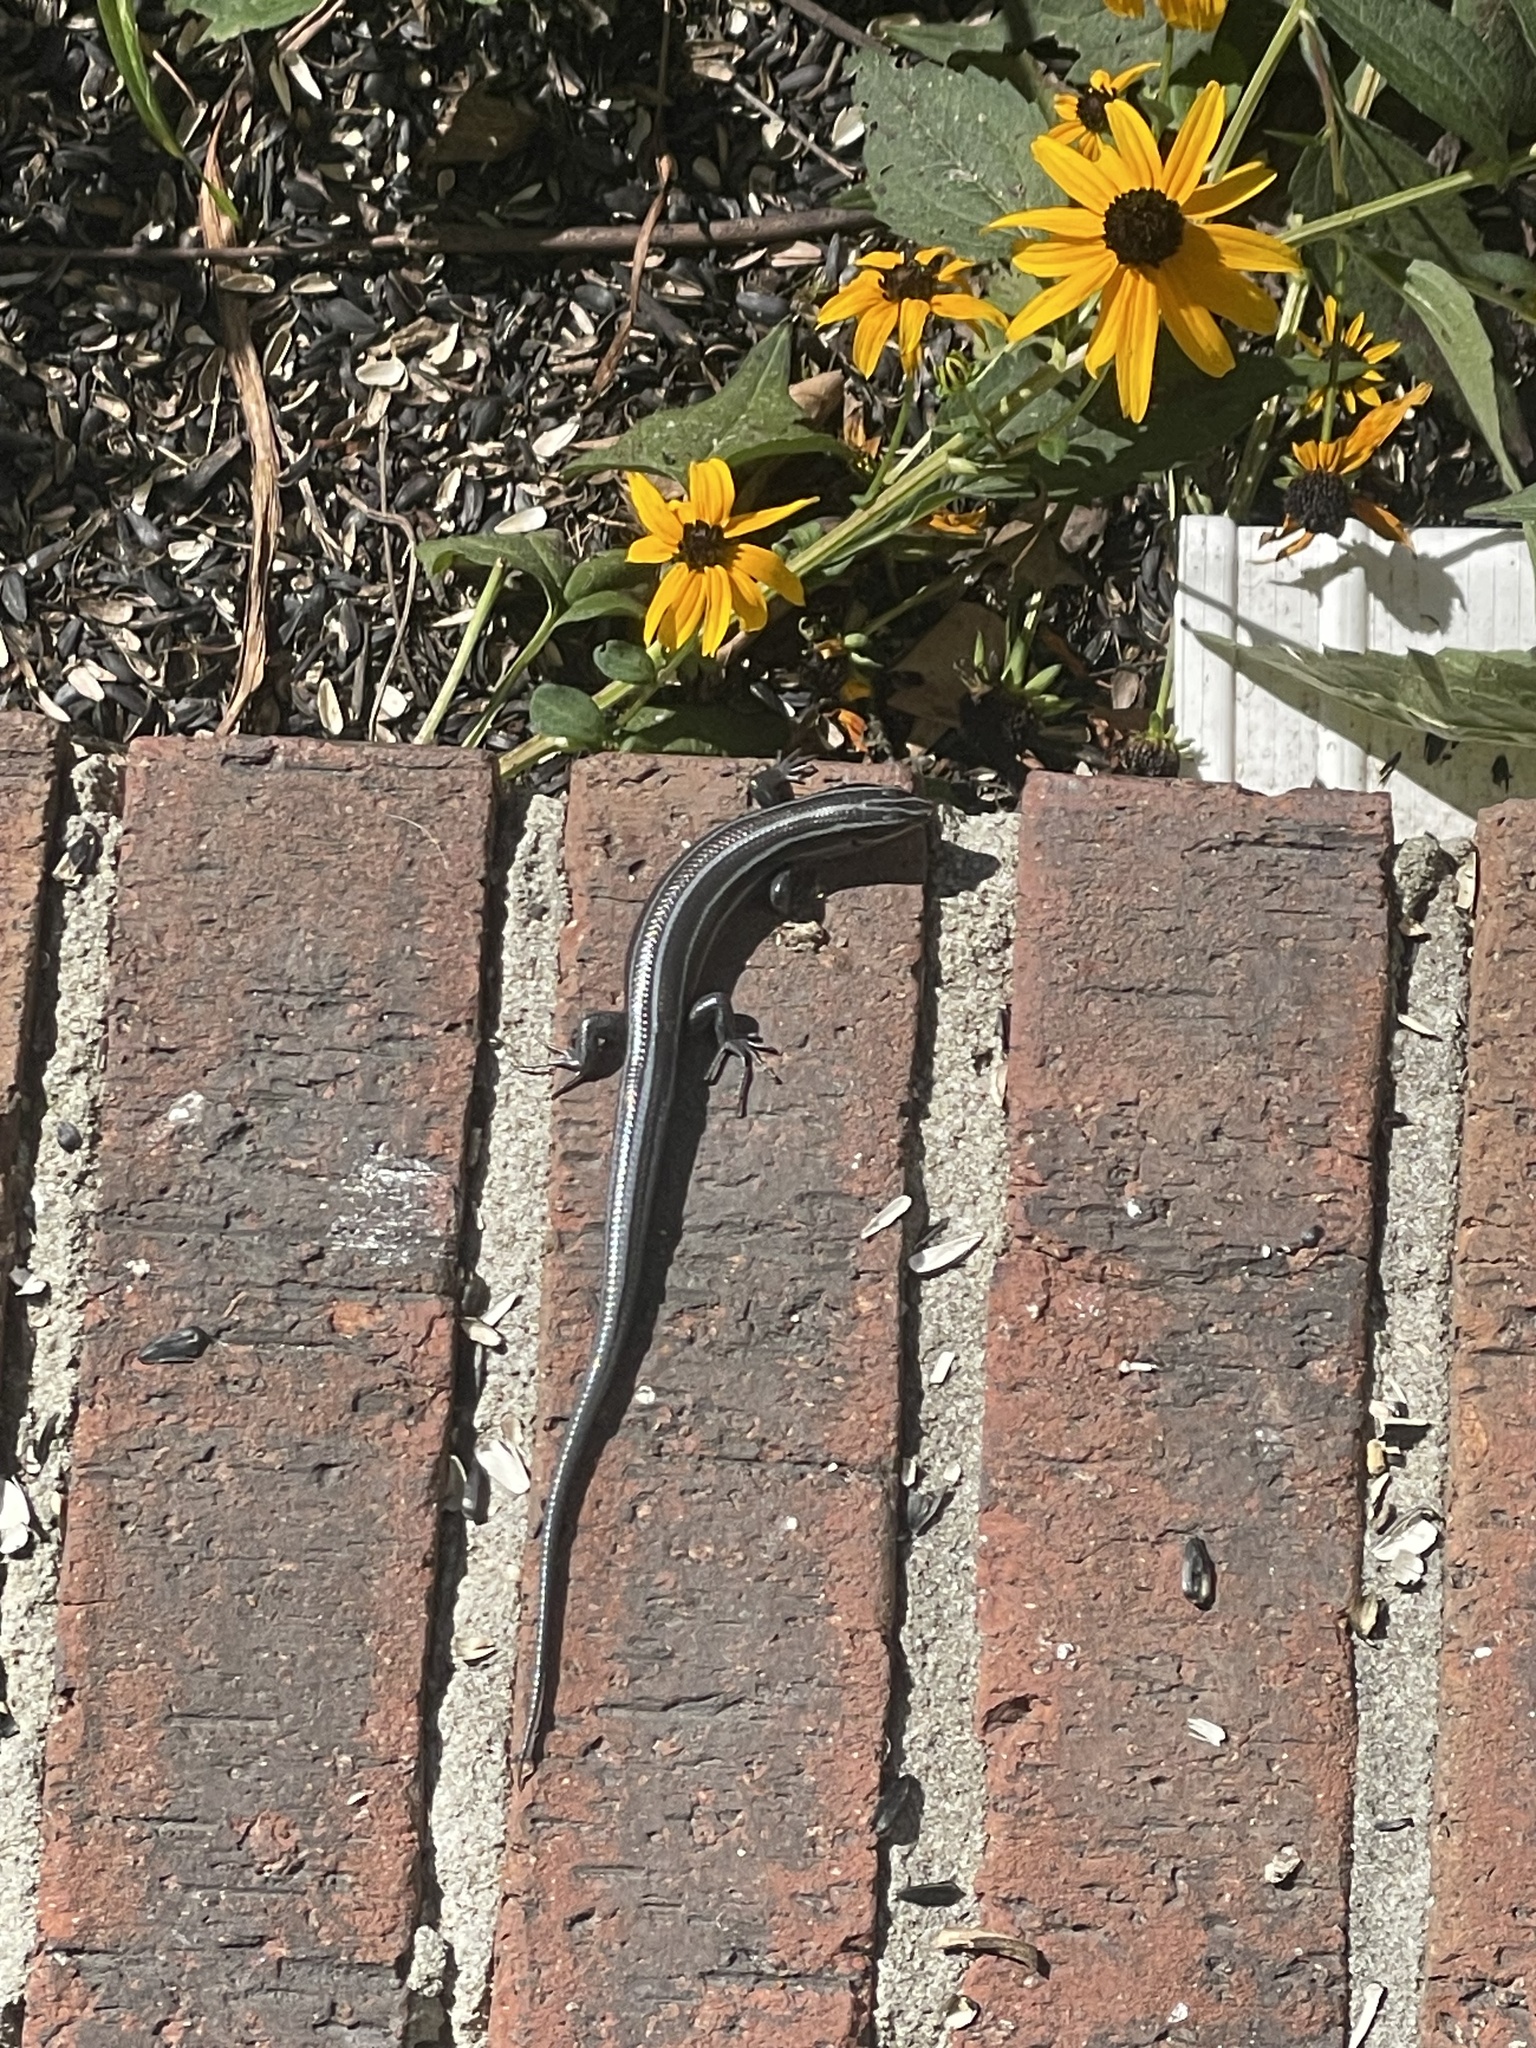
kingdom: Animalia
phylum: Chordata
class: Squamata
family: Scincidae
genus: Plestiodon
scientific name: Plestiodon fasciatus
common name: Five-lined skink
